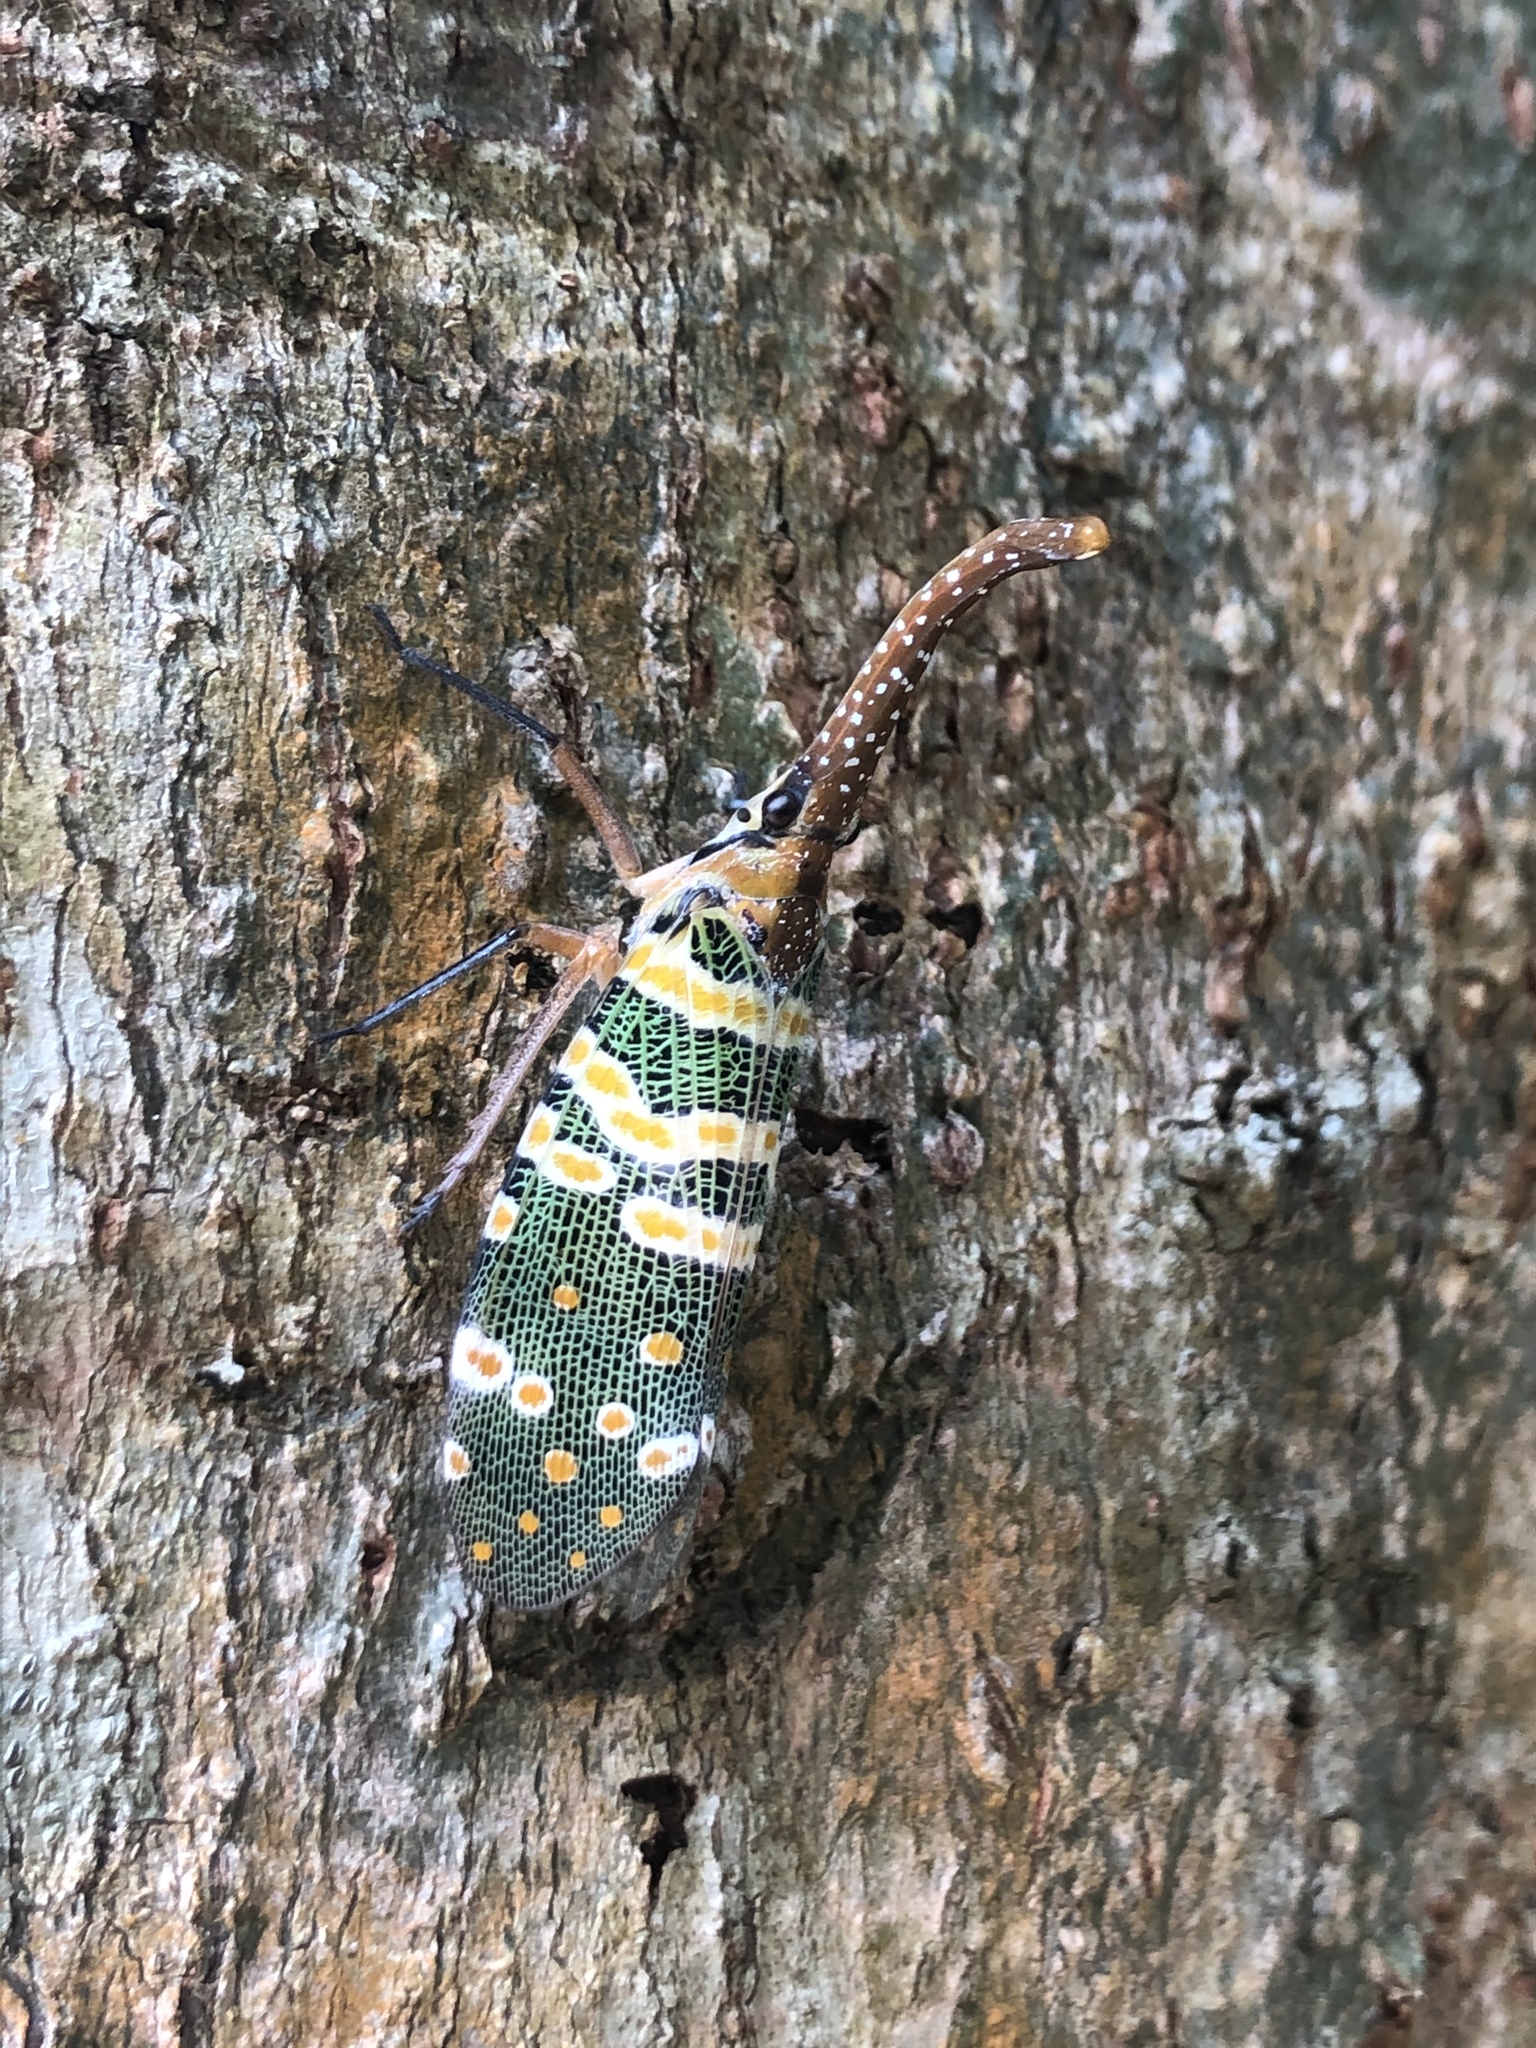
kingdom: Animalia
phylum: Arthropoda
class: Insecta
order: Hemiptera
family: Fulgoridae
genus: Pyrops
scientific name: Pyrops candelaria
